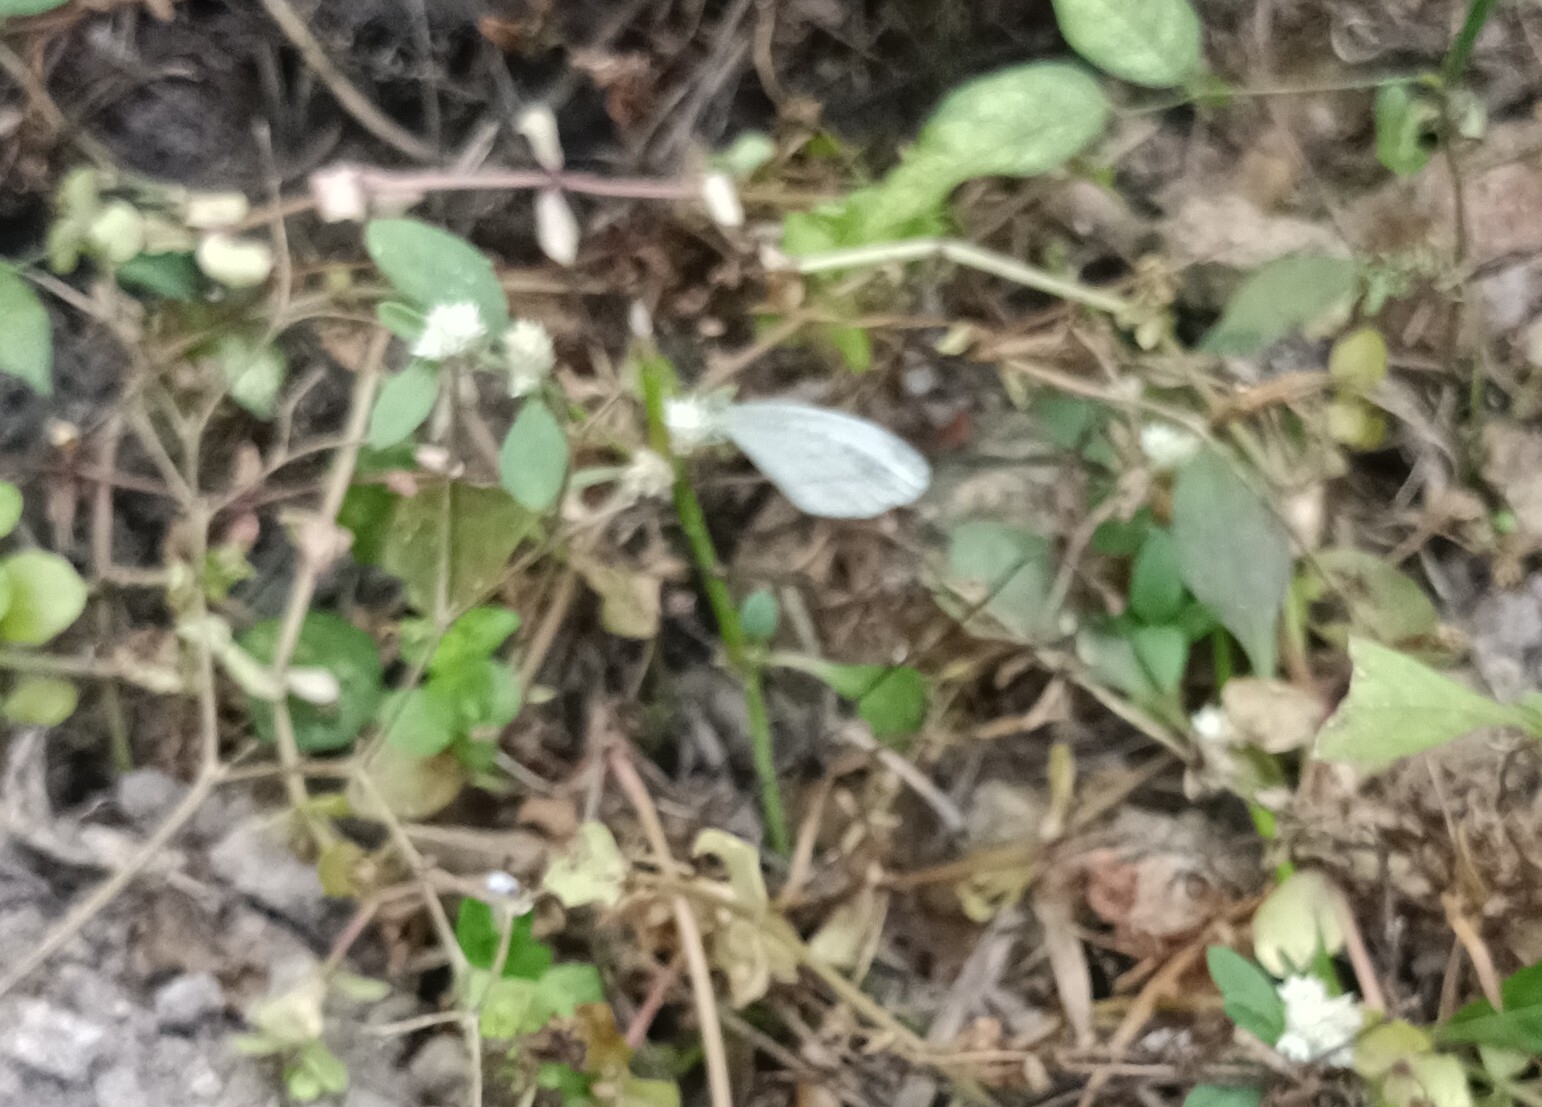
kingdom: Animalia
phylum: Arthropoda
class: Insecta
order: Lepidoptera
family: Pieridae
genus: Leptosia
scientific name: Leptosia nina
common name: Psyche
